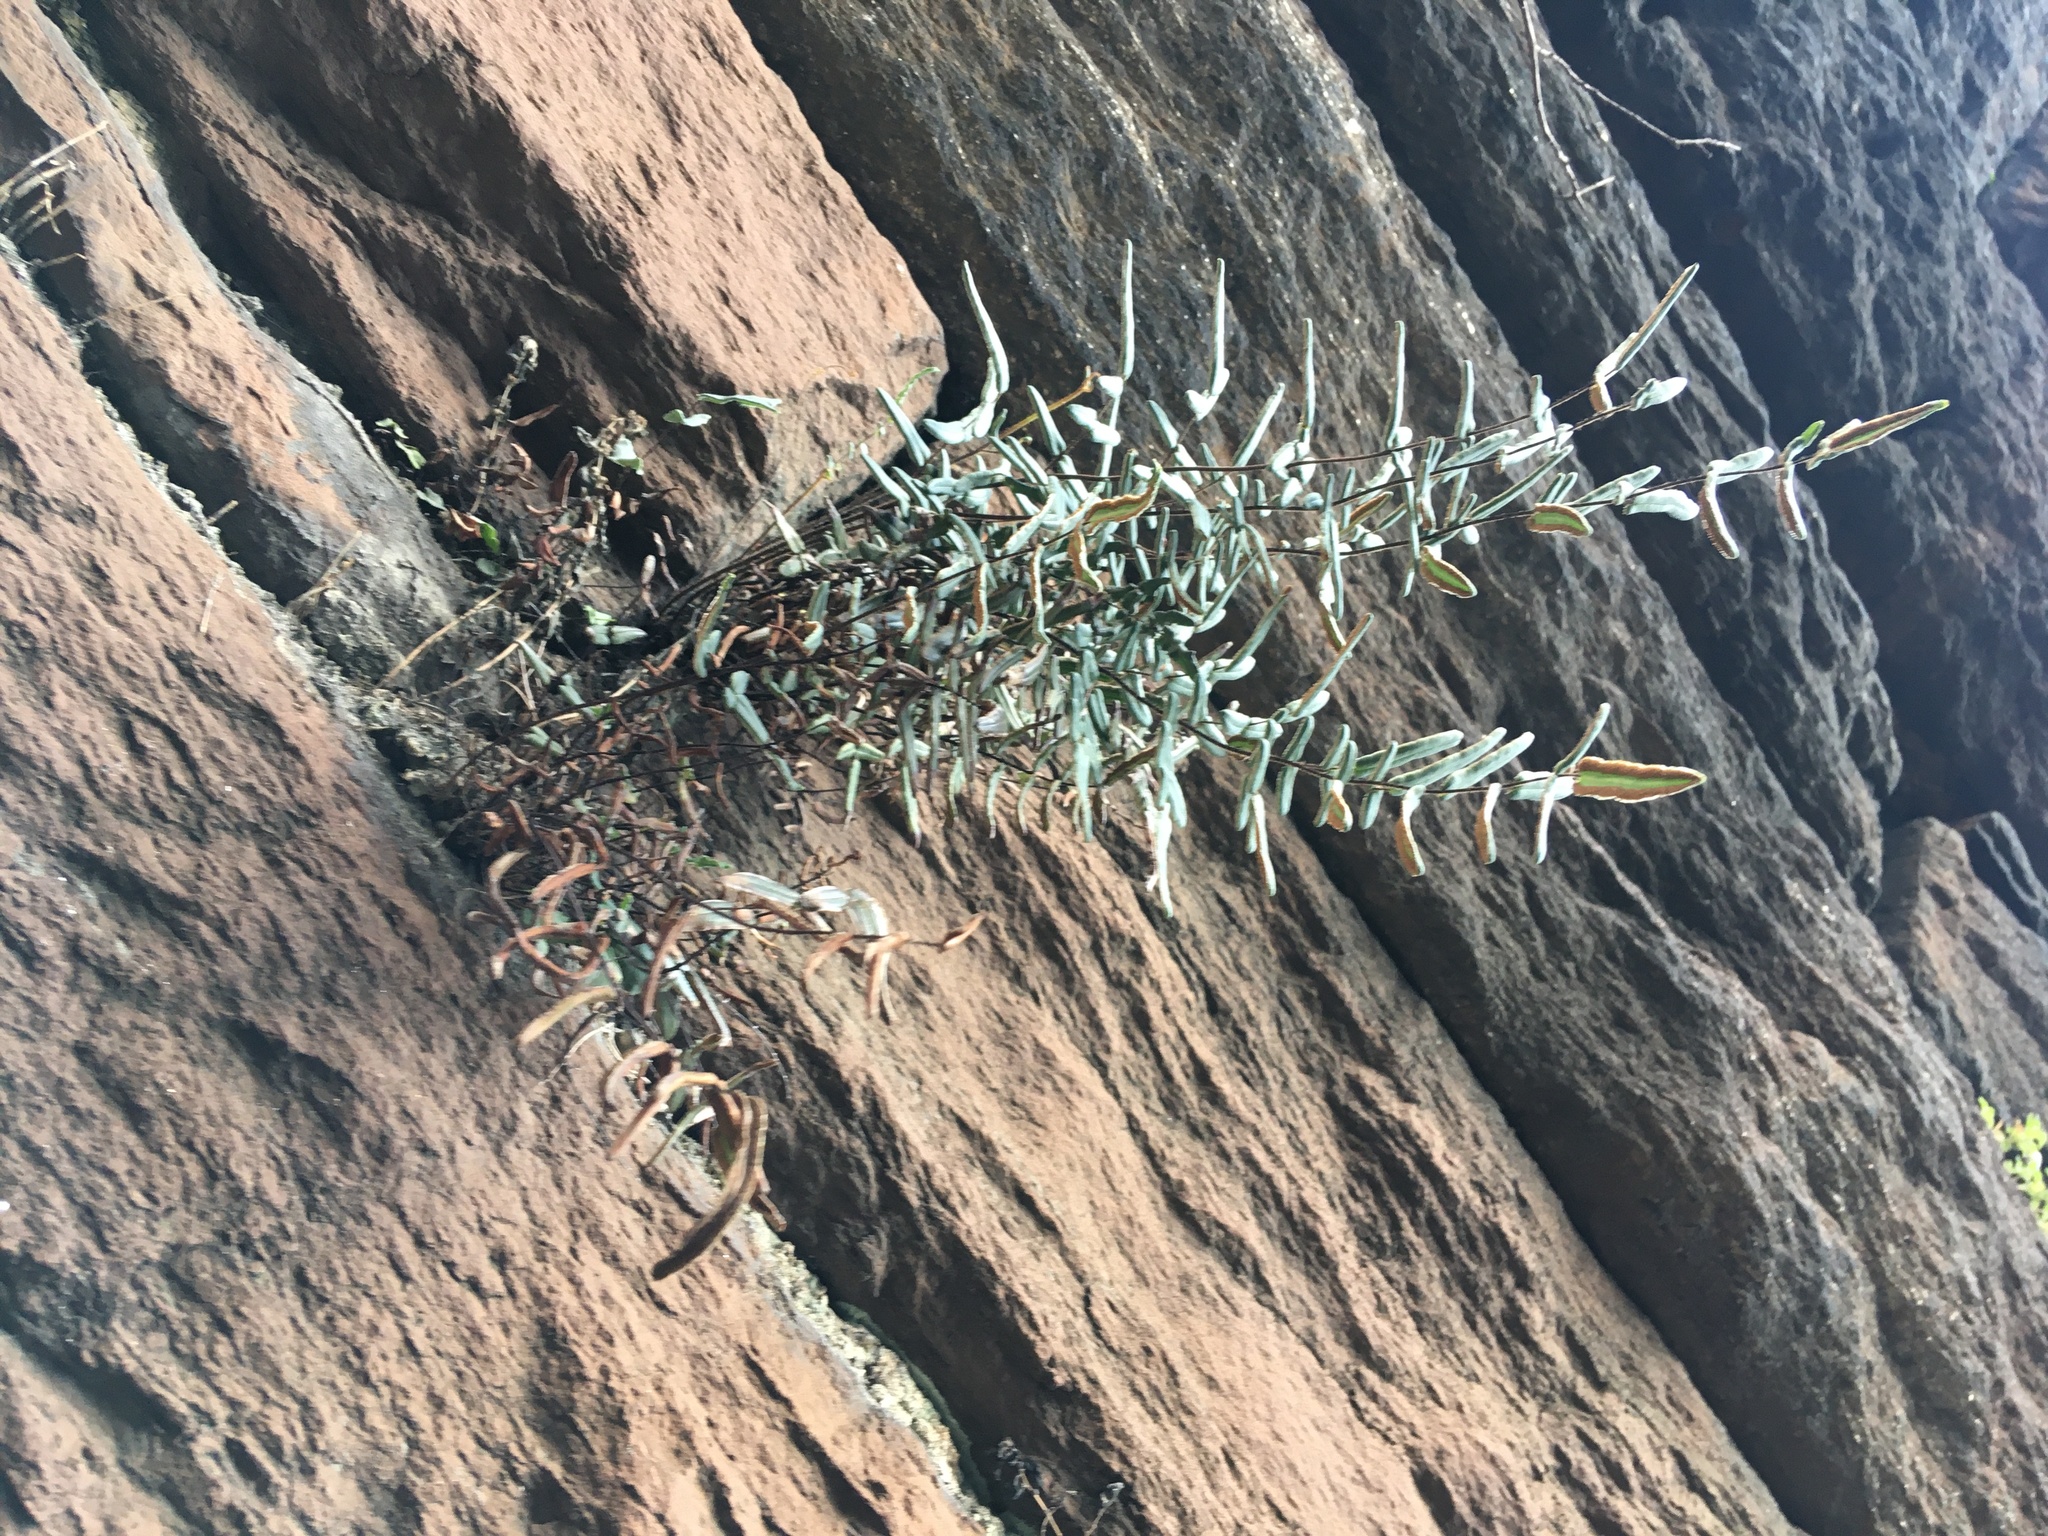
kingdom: Plantae
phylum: Tracheophyta
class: Polypodiopsida
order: Polypodiales
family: Pteridaceae
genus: Pellaea
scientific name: Pellaea atropurpurea
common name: Hairy cliffbrake
